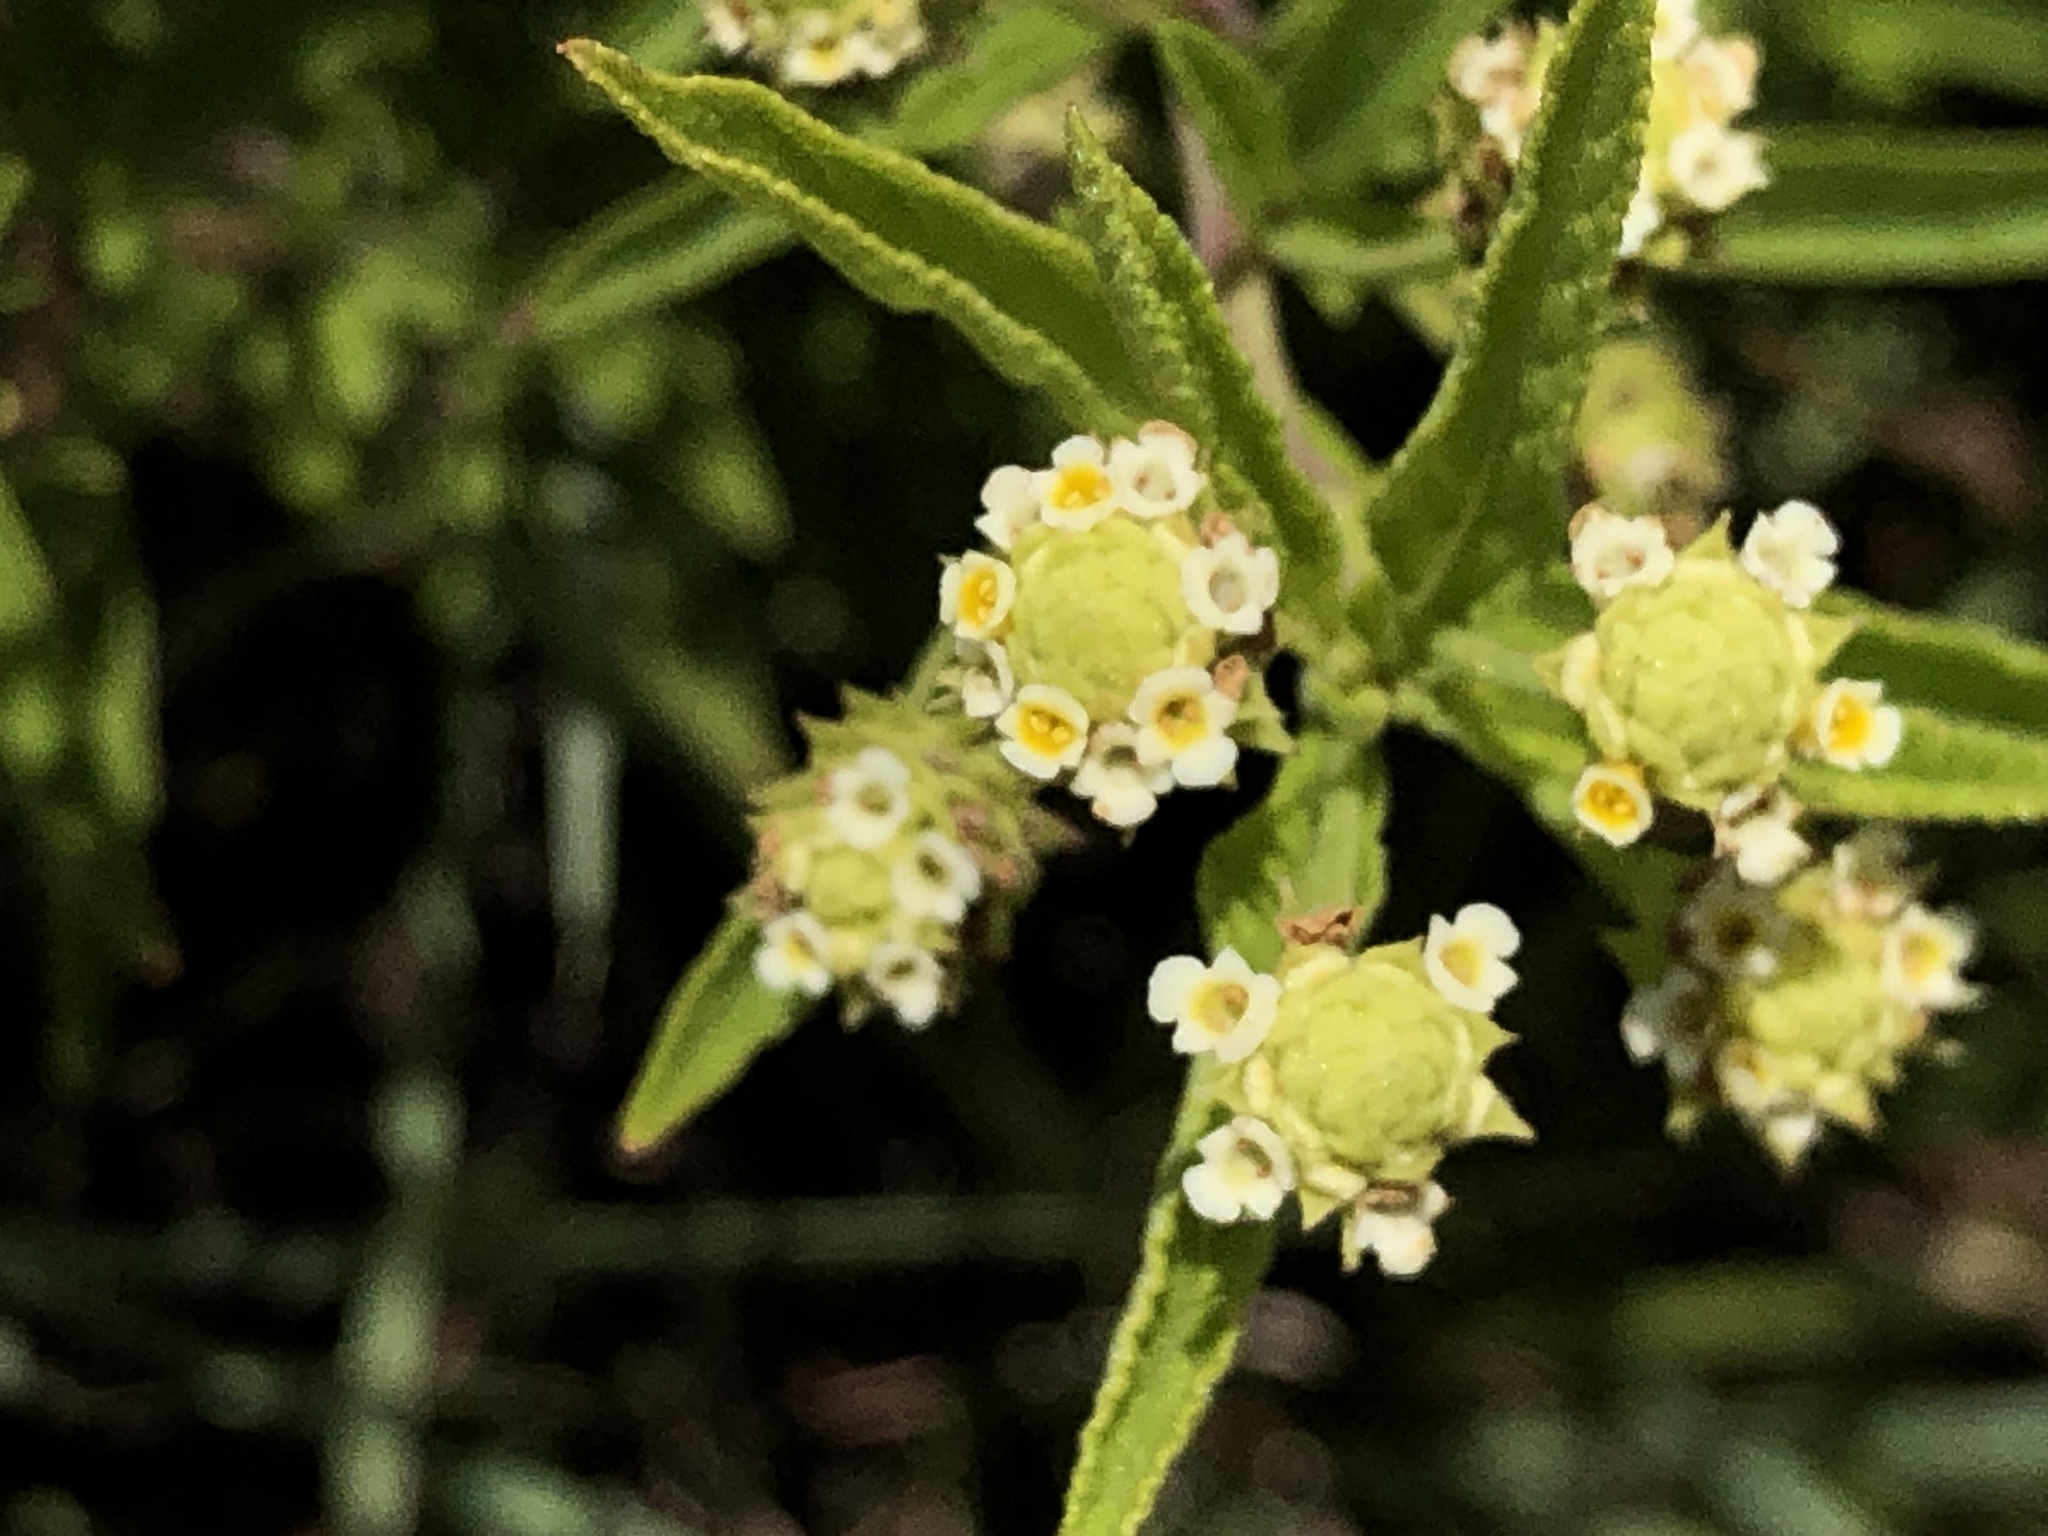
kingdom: Plantae
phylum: Tracheophyta
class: Magnoliopsida
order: Lamiales
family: Verbenaceae
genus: Lippia
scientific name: Lippia javanica
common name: Lemonbush
